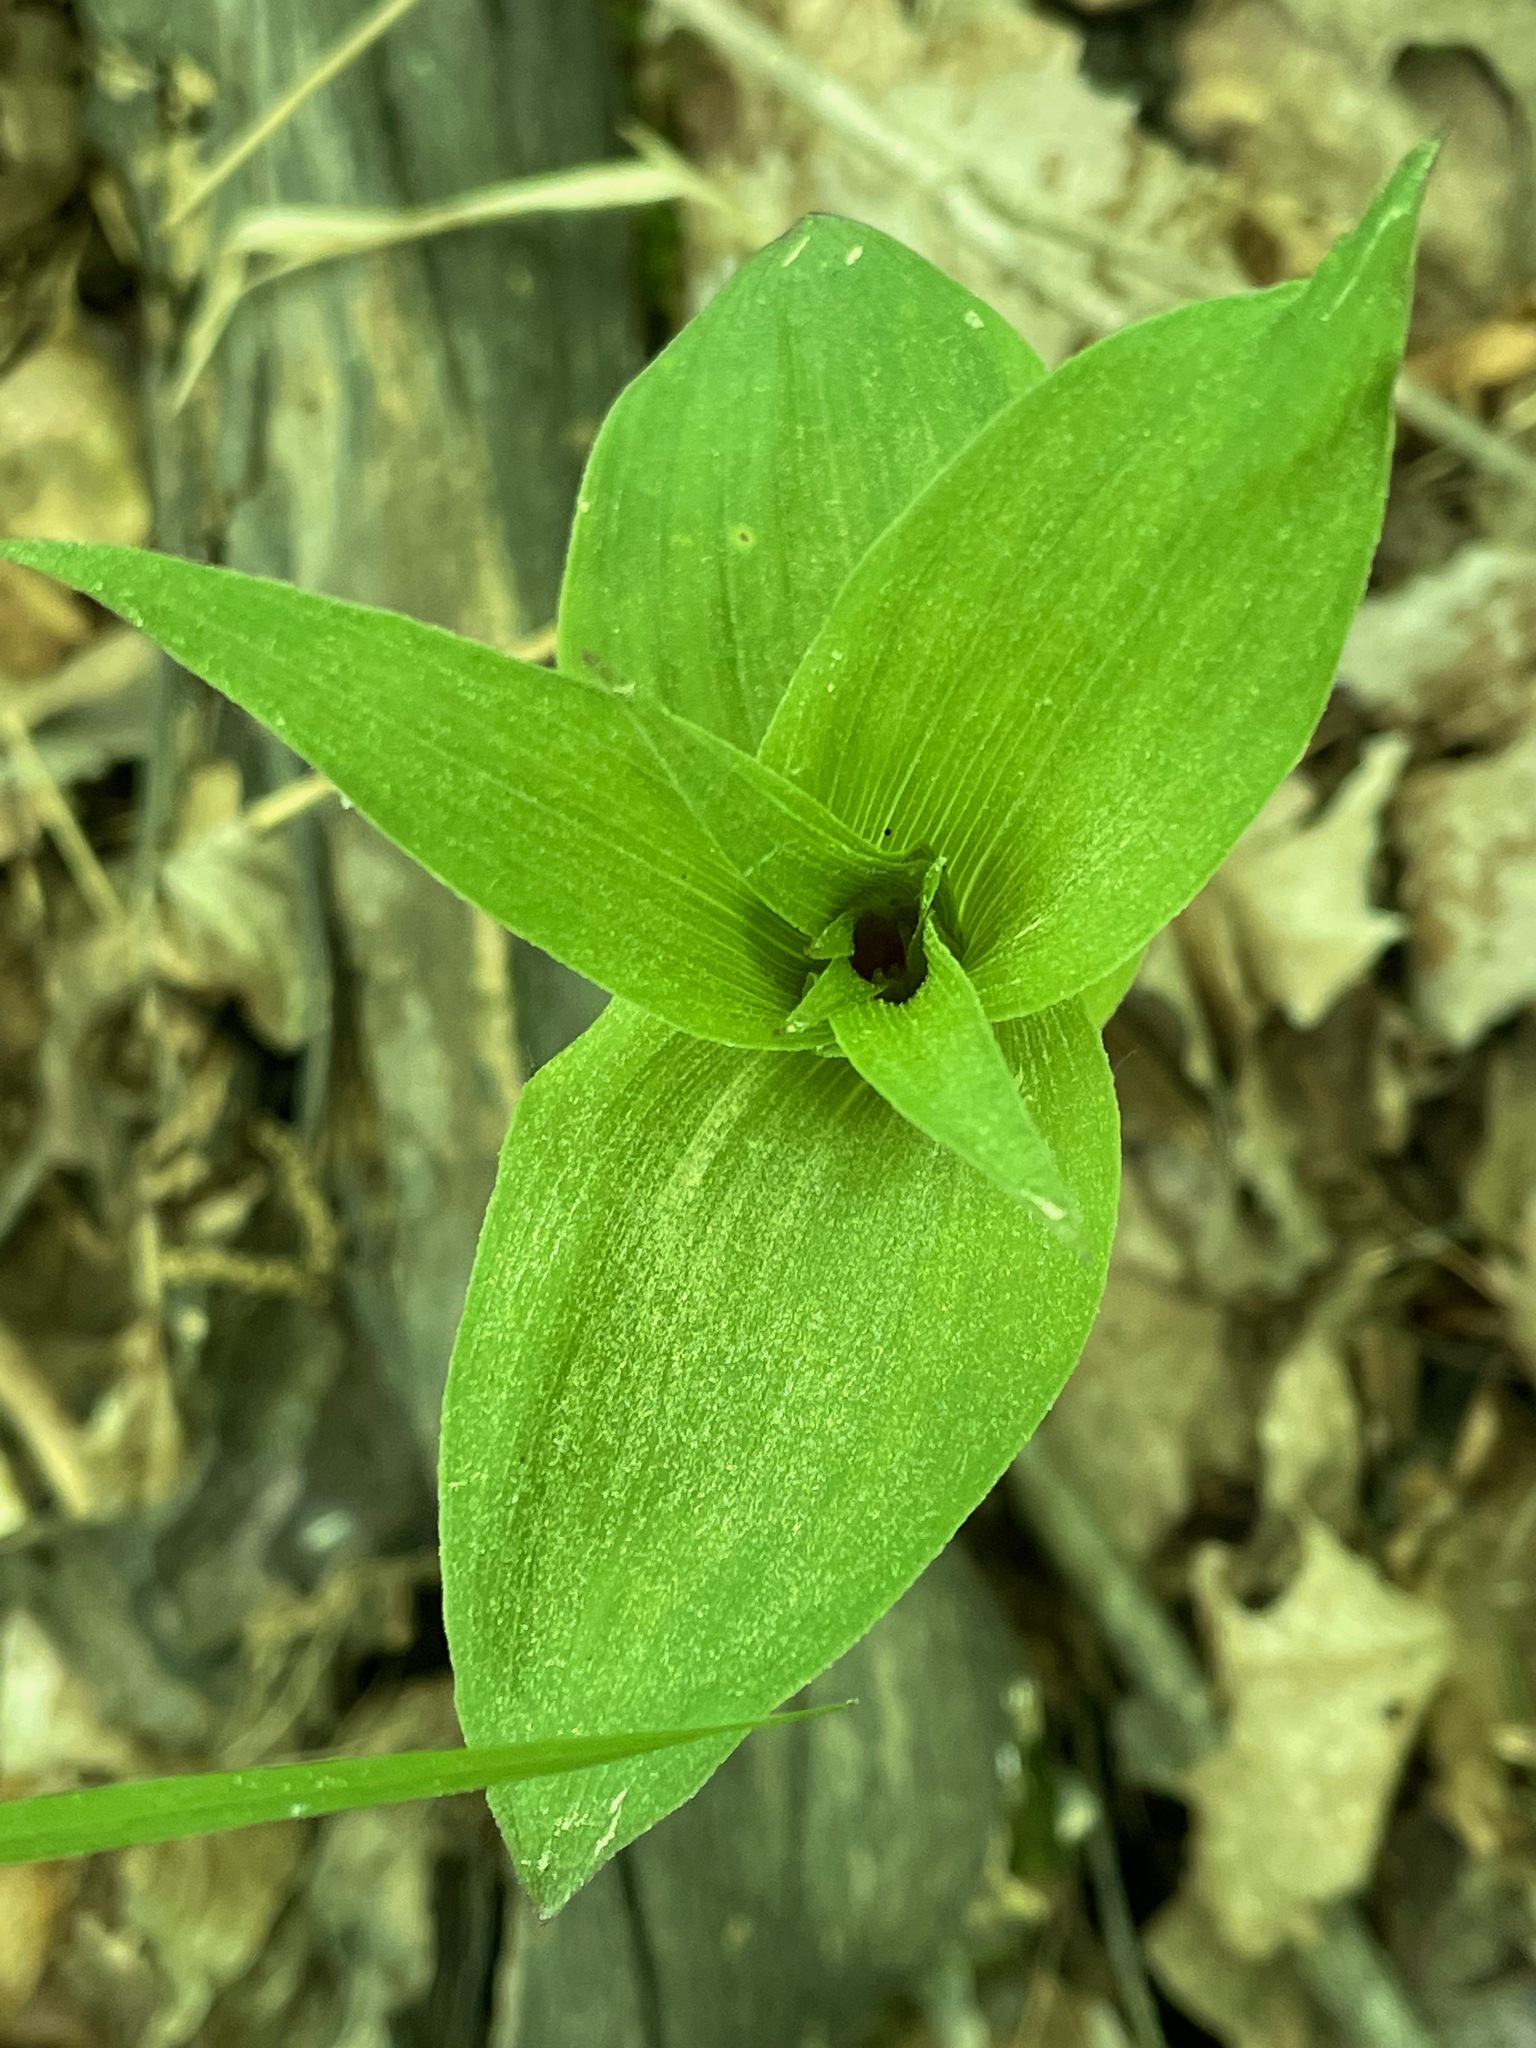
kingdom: Plantae
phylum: Tracheophyta
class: Liliopsida
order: Asparagales
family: Orchidaceae
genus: Epipactis
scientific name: Epipactis helleborine
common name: Broad-leaved helleborine
